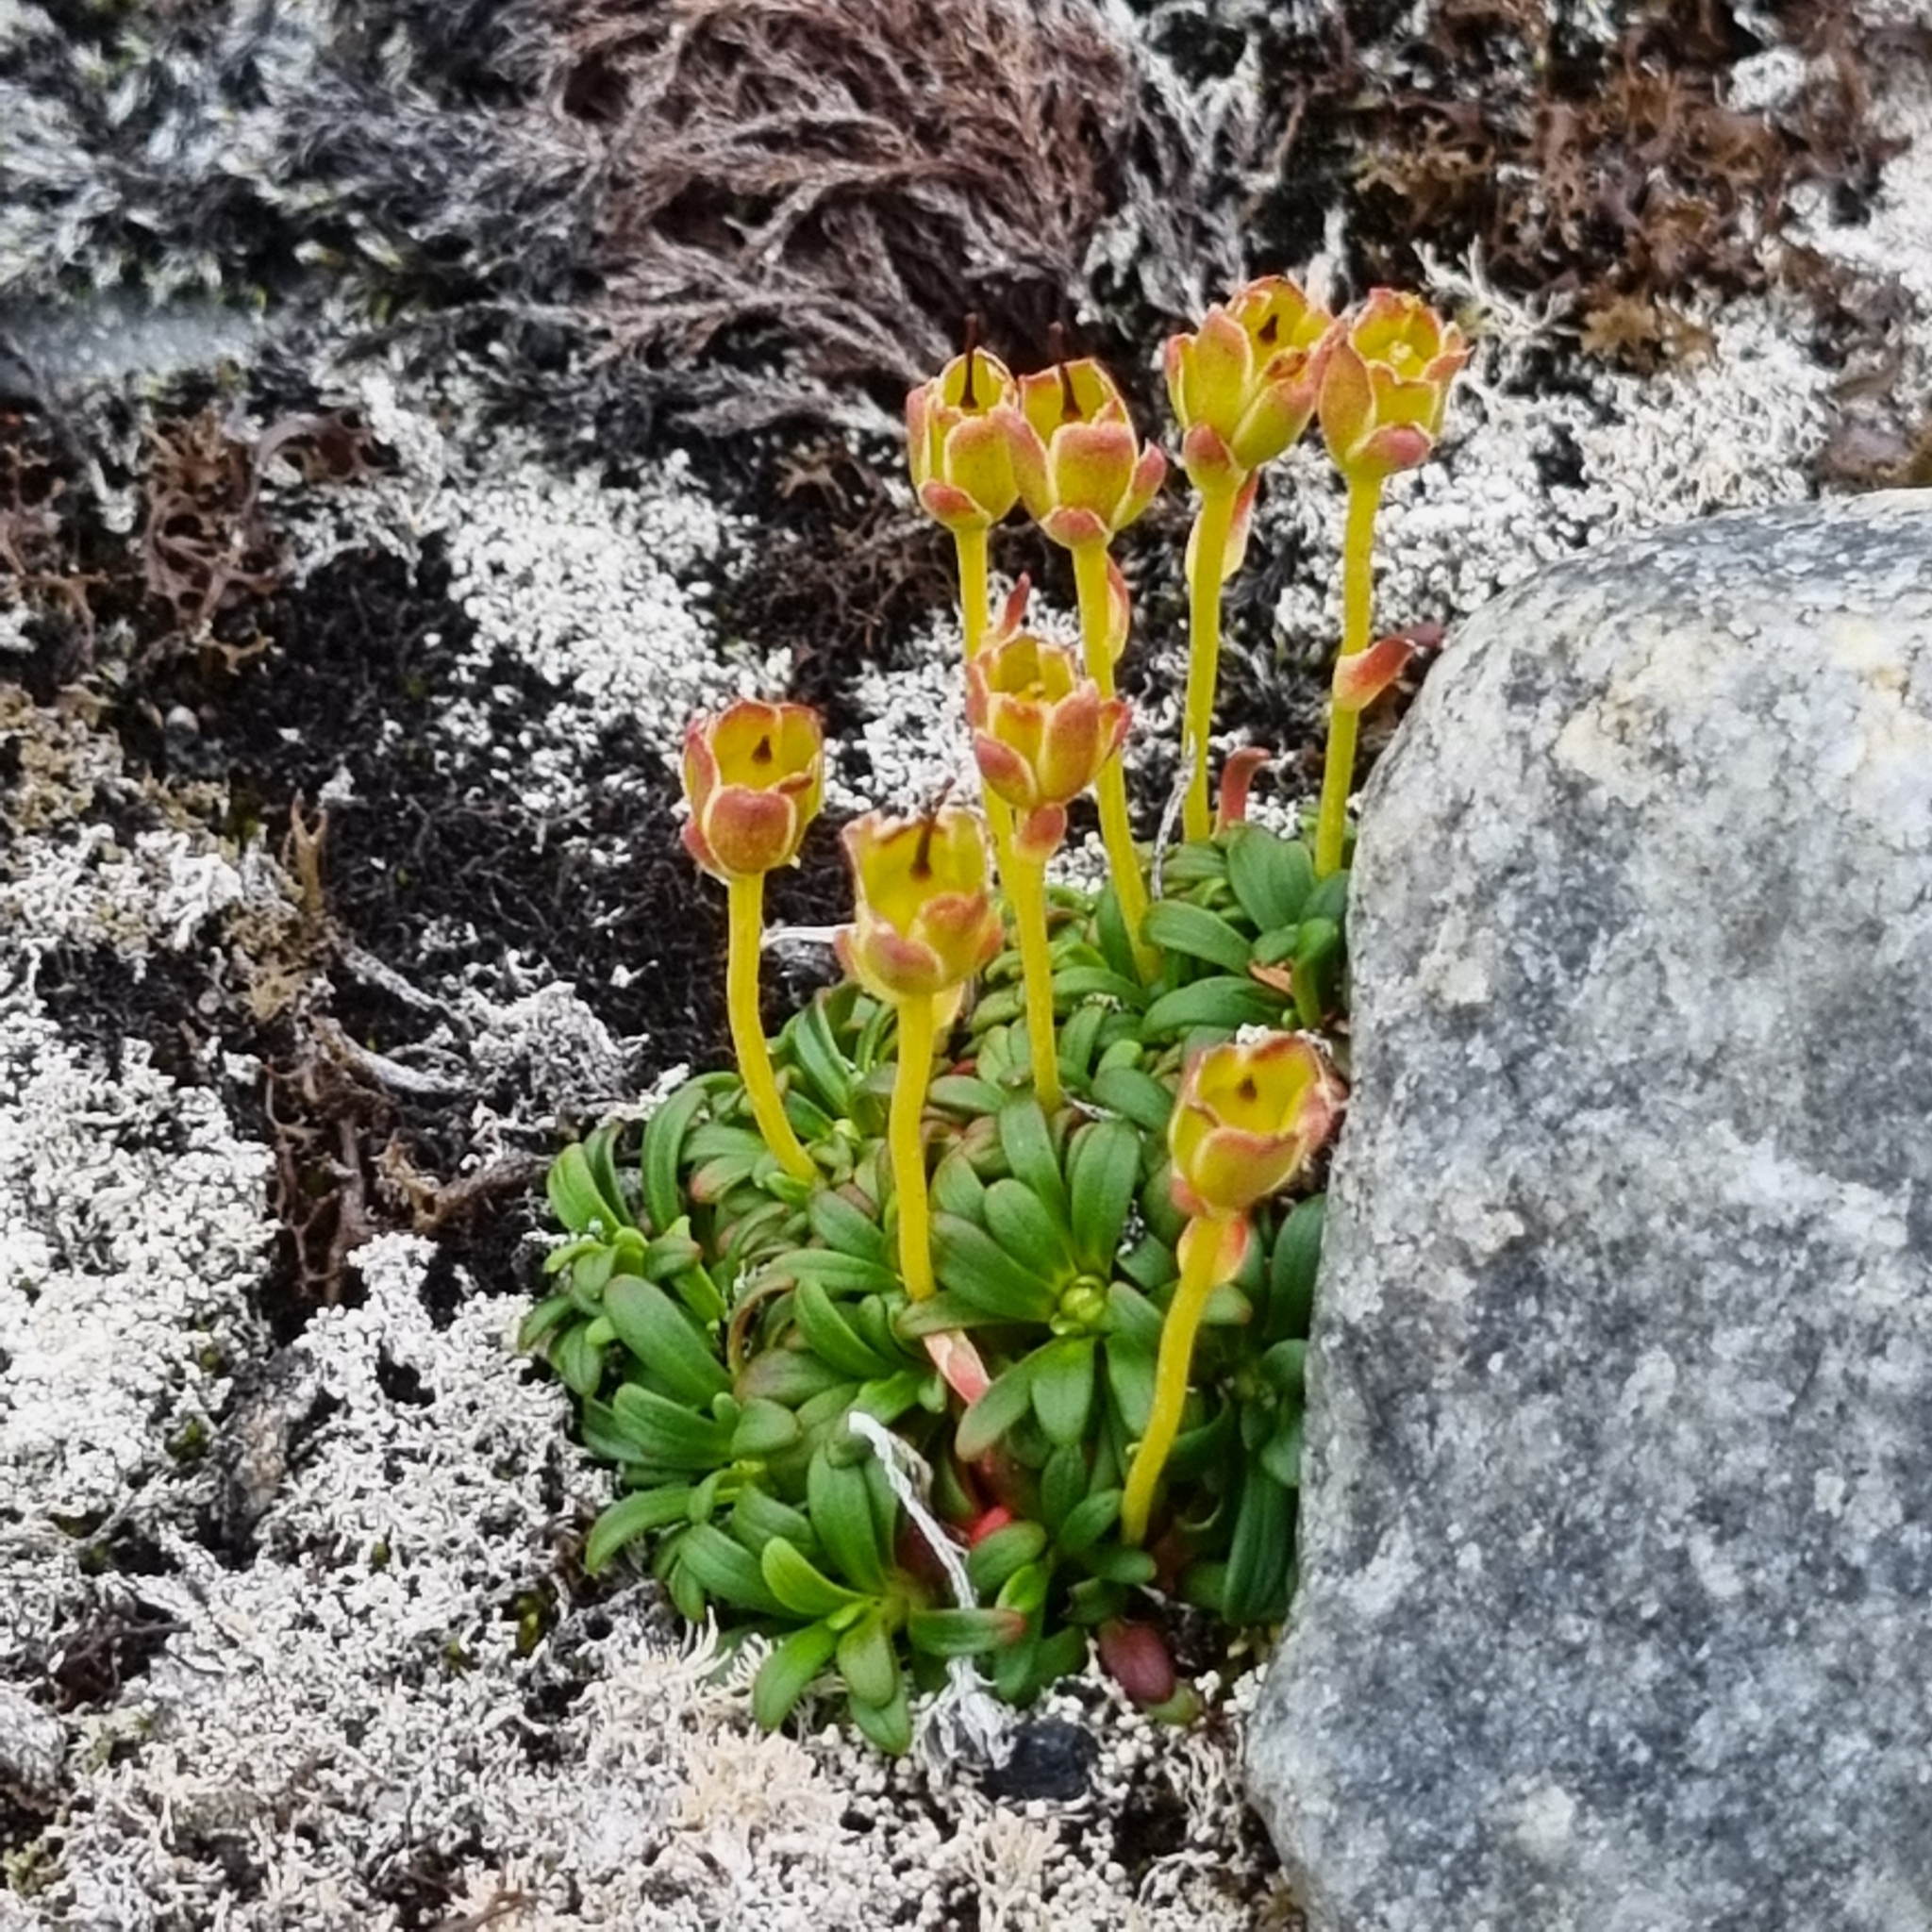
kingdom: Plantae
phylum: Tracheophyta
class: Magnoliopsida
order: Ericales
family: Diapensiaceae
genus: Diapensia
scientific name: Diapensia lapponica
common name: Diapensia
